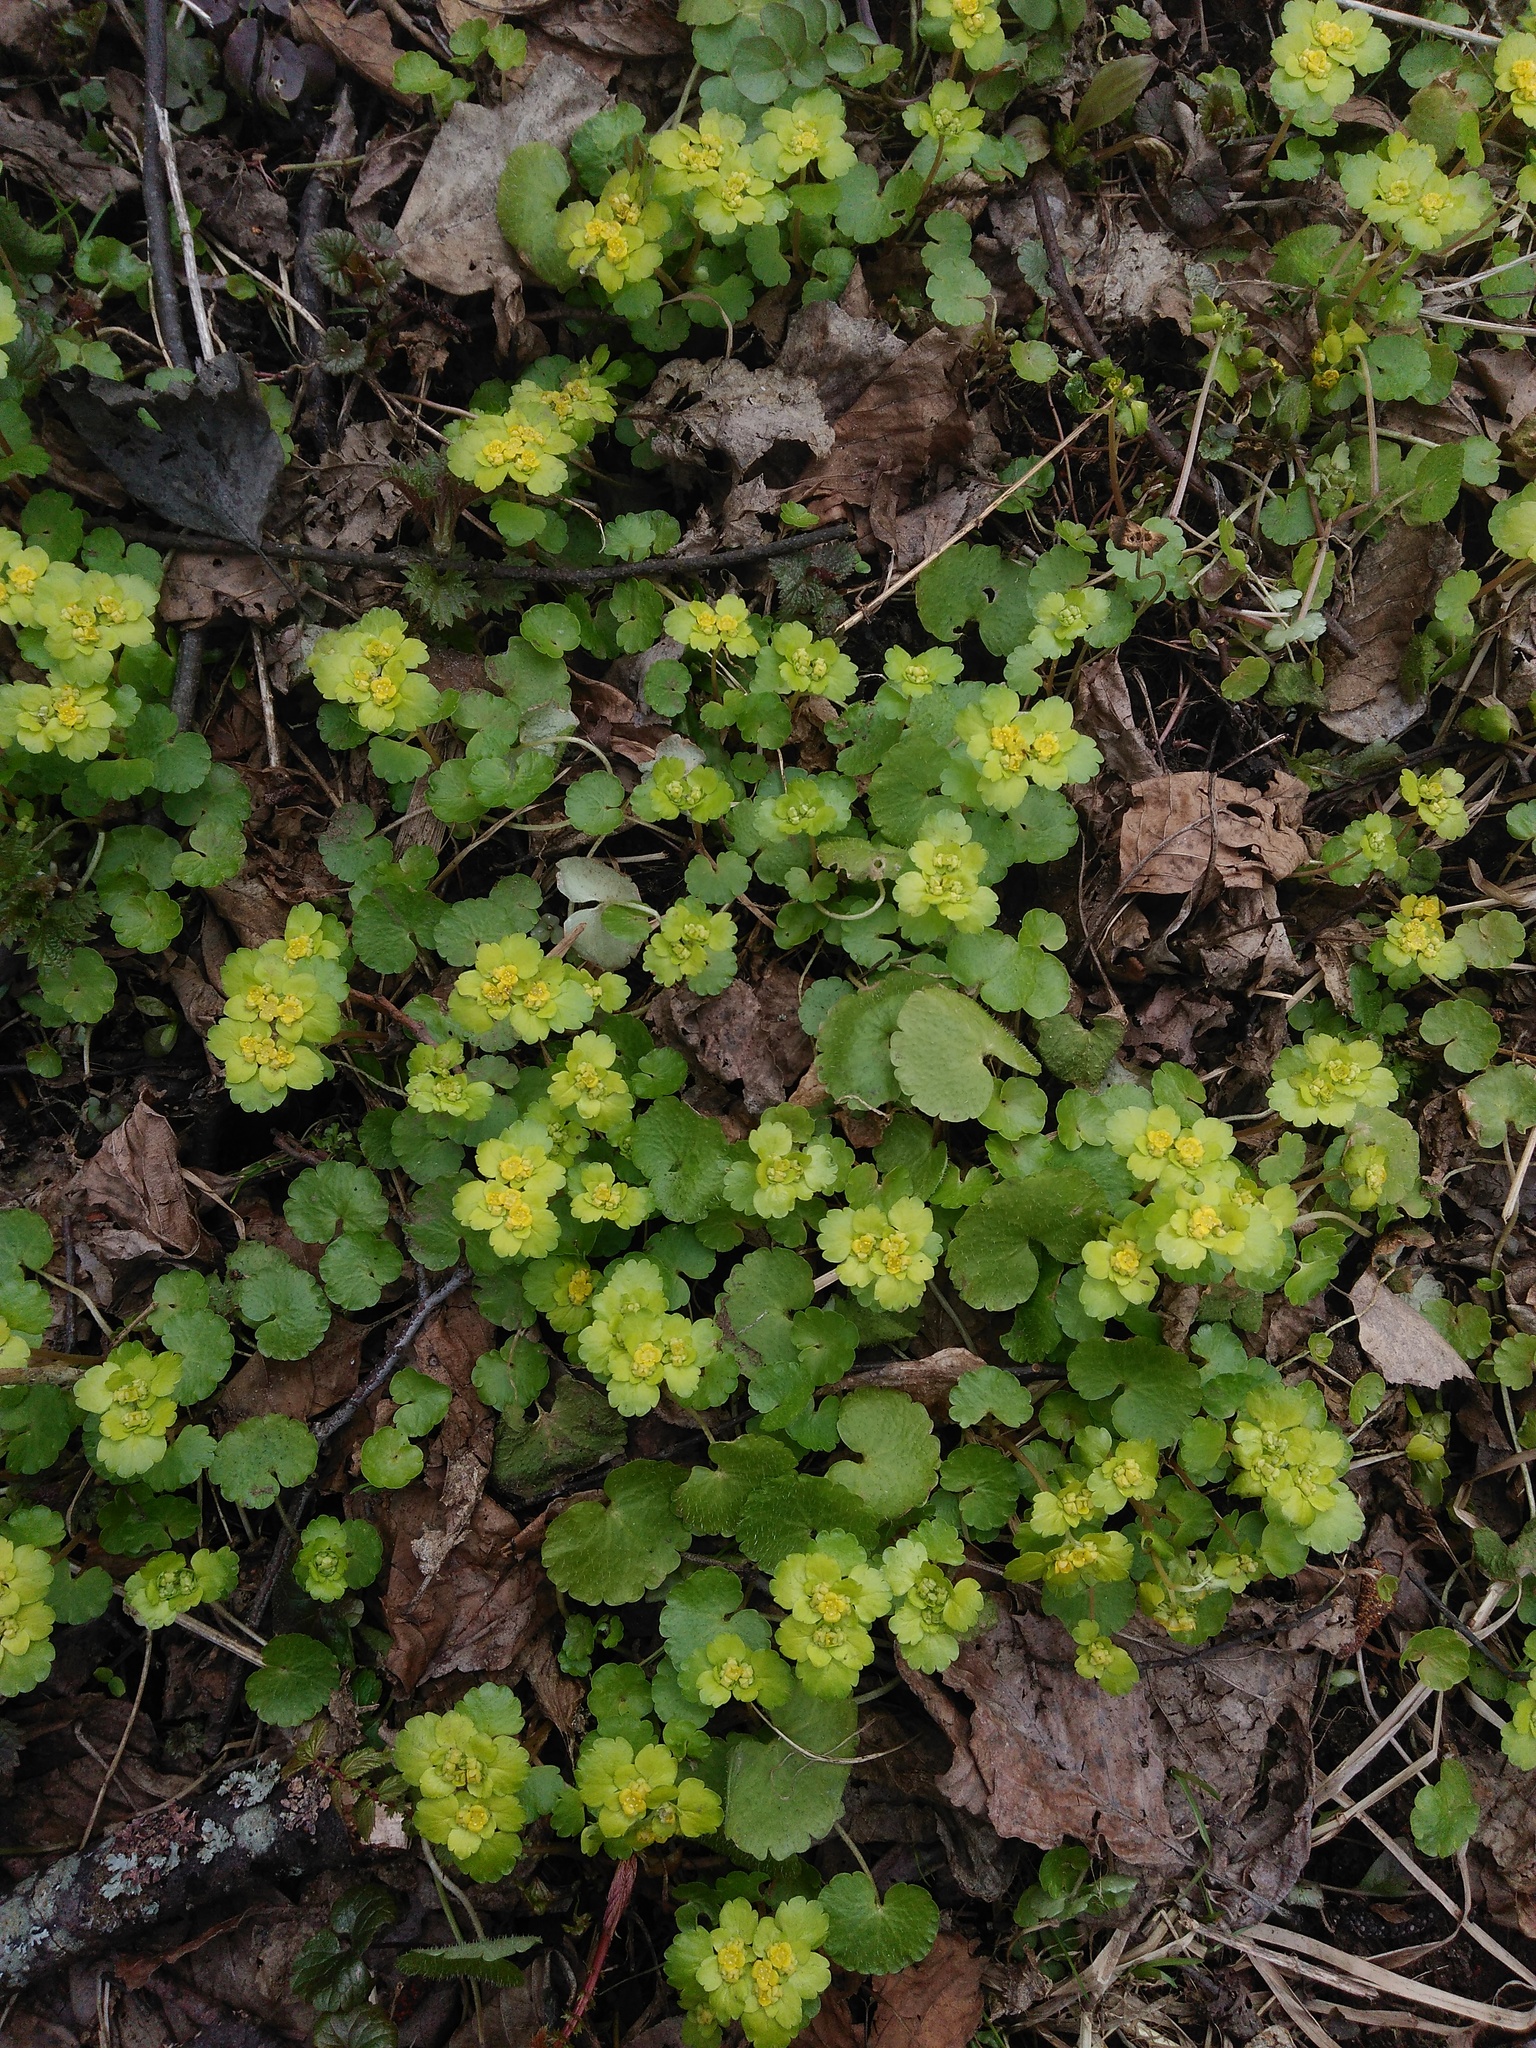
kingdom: Plantae
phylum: Tracheophyta
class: Magnoliopsida
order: Saxifragales
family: Saxifragaceae
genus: Chrysosplenium
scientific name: Chrysosplenium alternifolium
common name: Alternate-leaved golden-saxifrage
